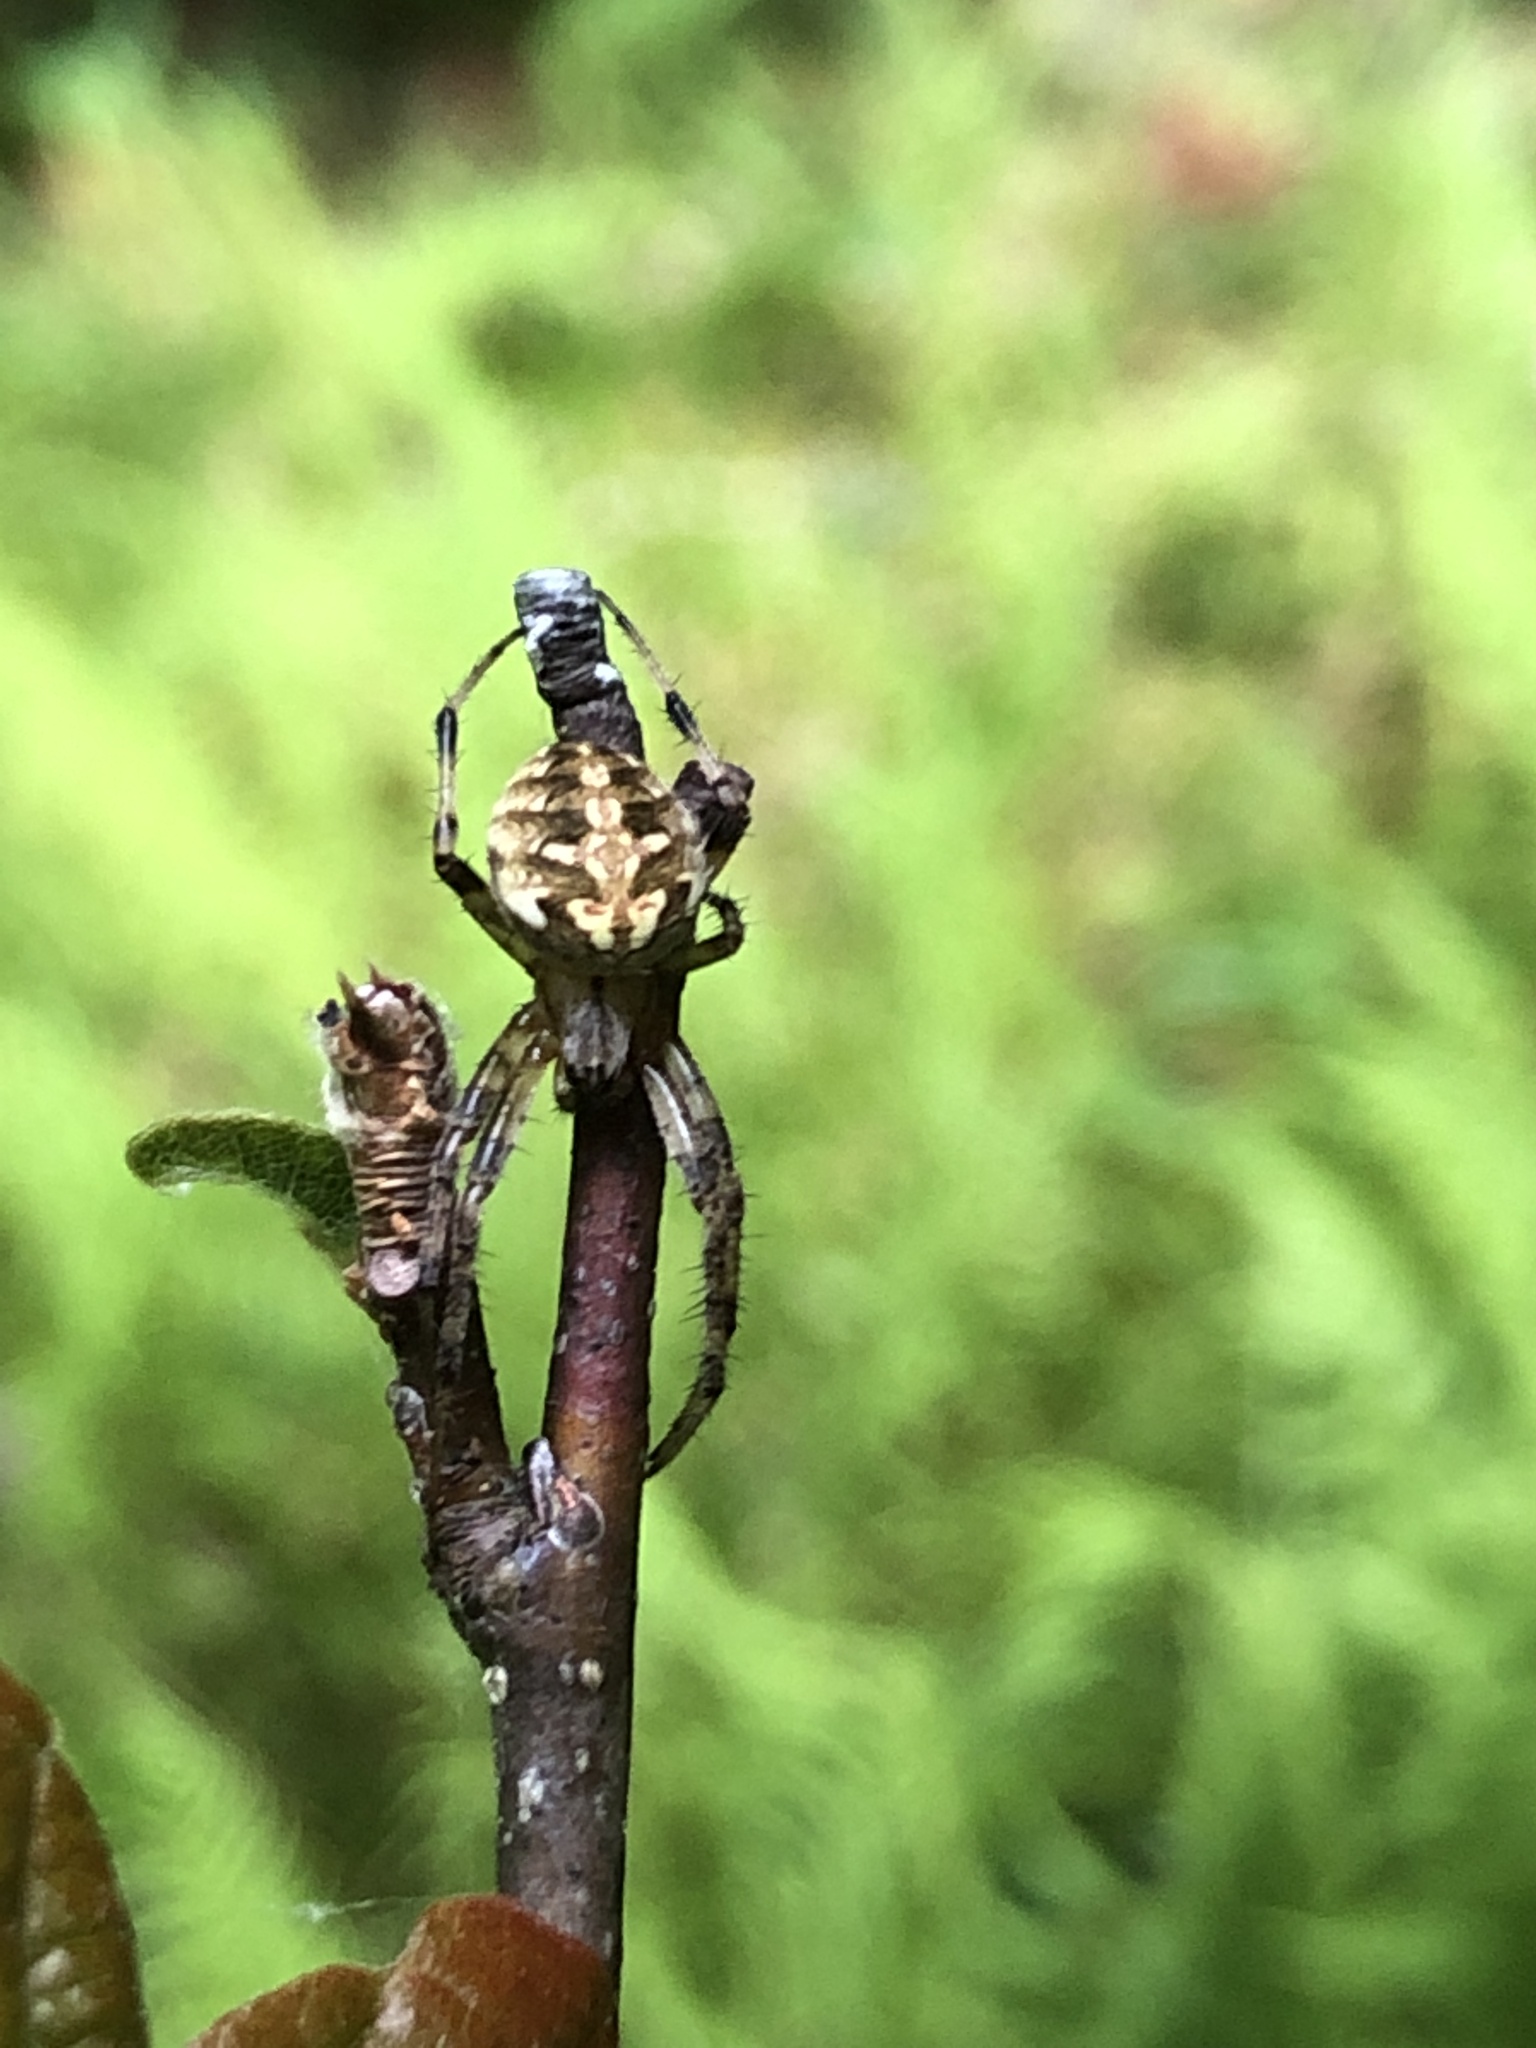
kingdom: Animalia
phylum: Arthropoda
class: Arachnida
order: Araneae
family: Araneidae
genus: Neoscona
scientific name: Neoscona arabesca
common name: Orb weavers
